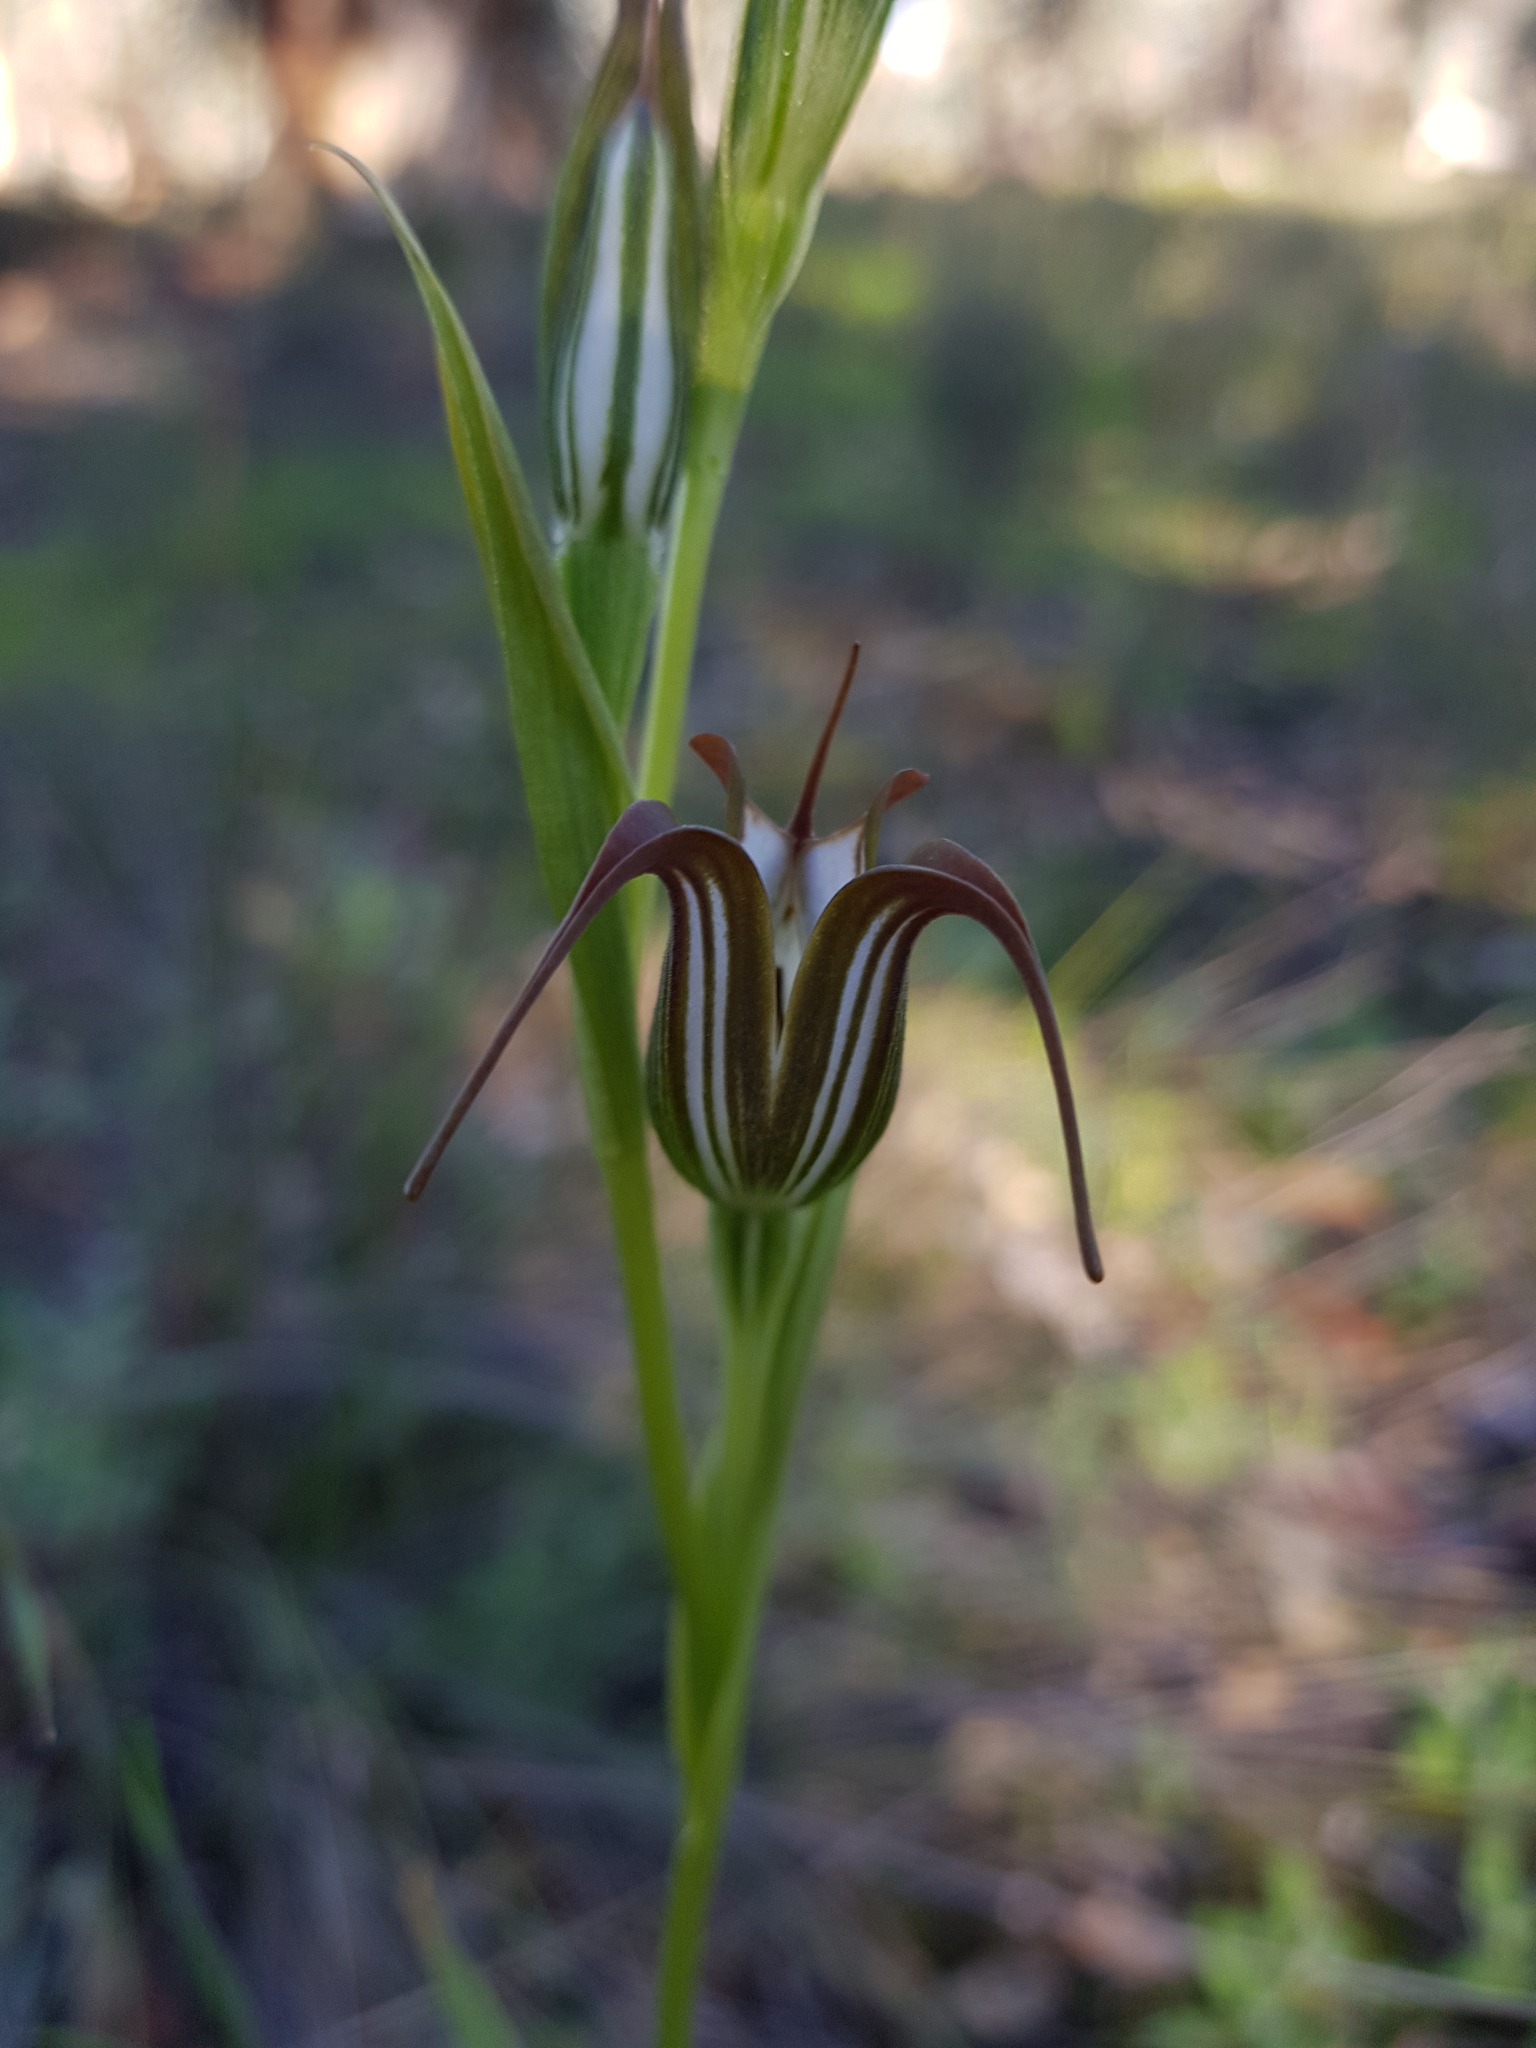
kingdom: Plantae
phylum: Tracheophyta
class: Liliopsida
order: Asparagales
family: Orchidaceae
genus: Pterostylis
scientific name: Pterostylis recurva
